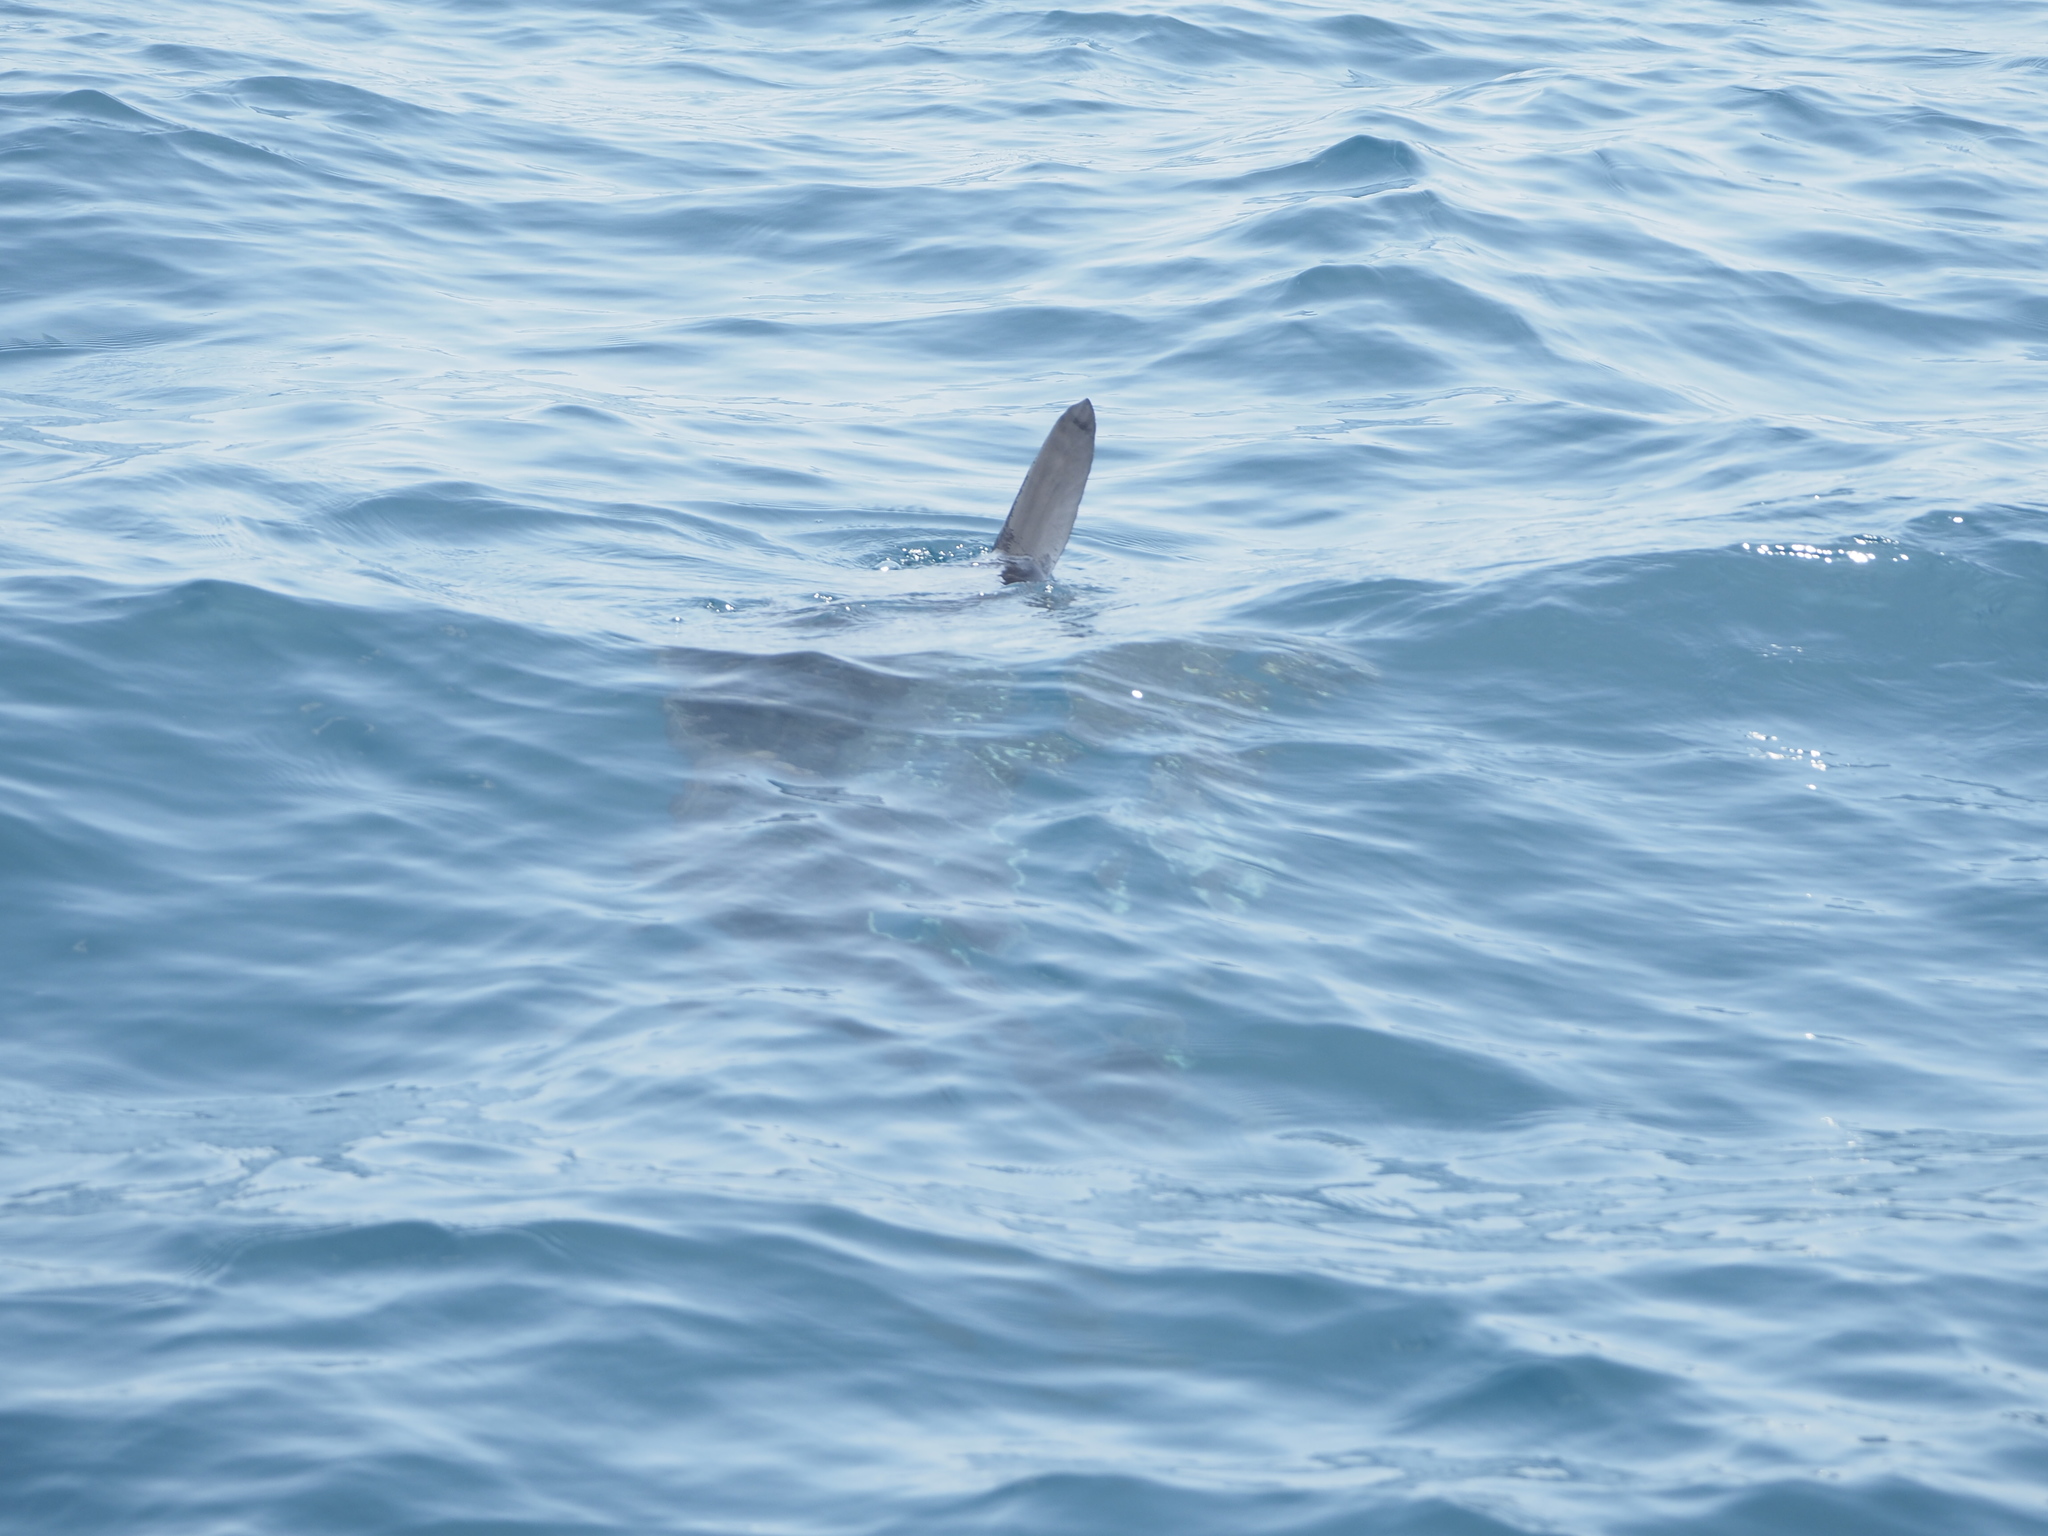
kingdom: Animalia
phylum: Chordata
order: Tetraodontiformes
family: Molidae
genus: Mola
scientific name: Mola mola
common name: Ocean sunfish
